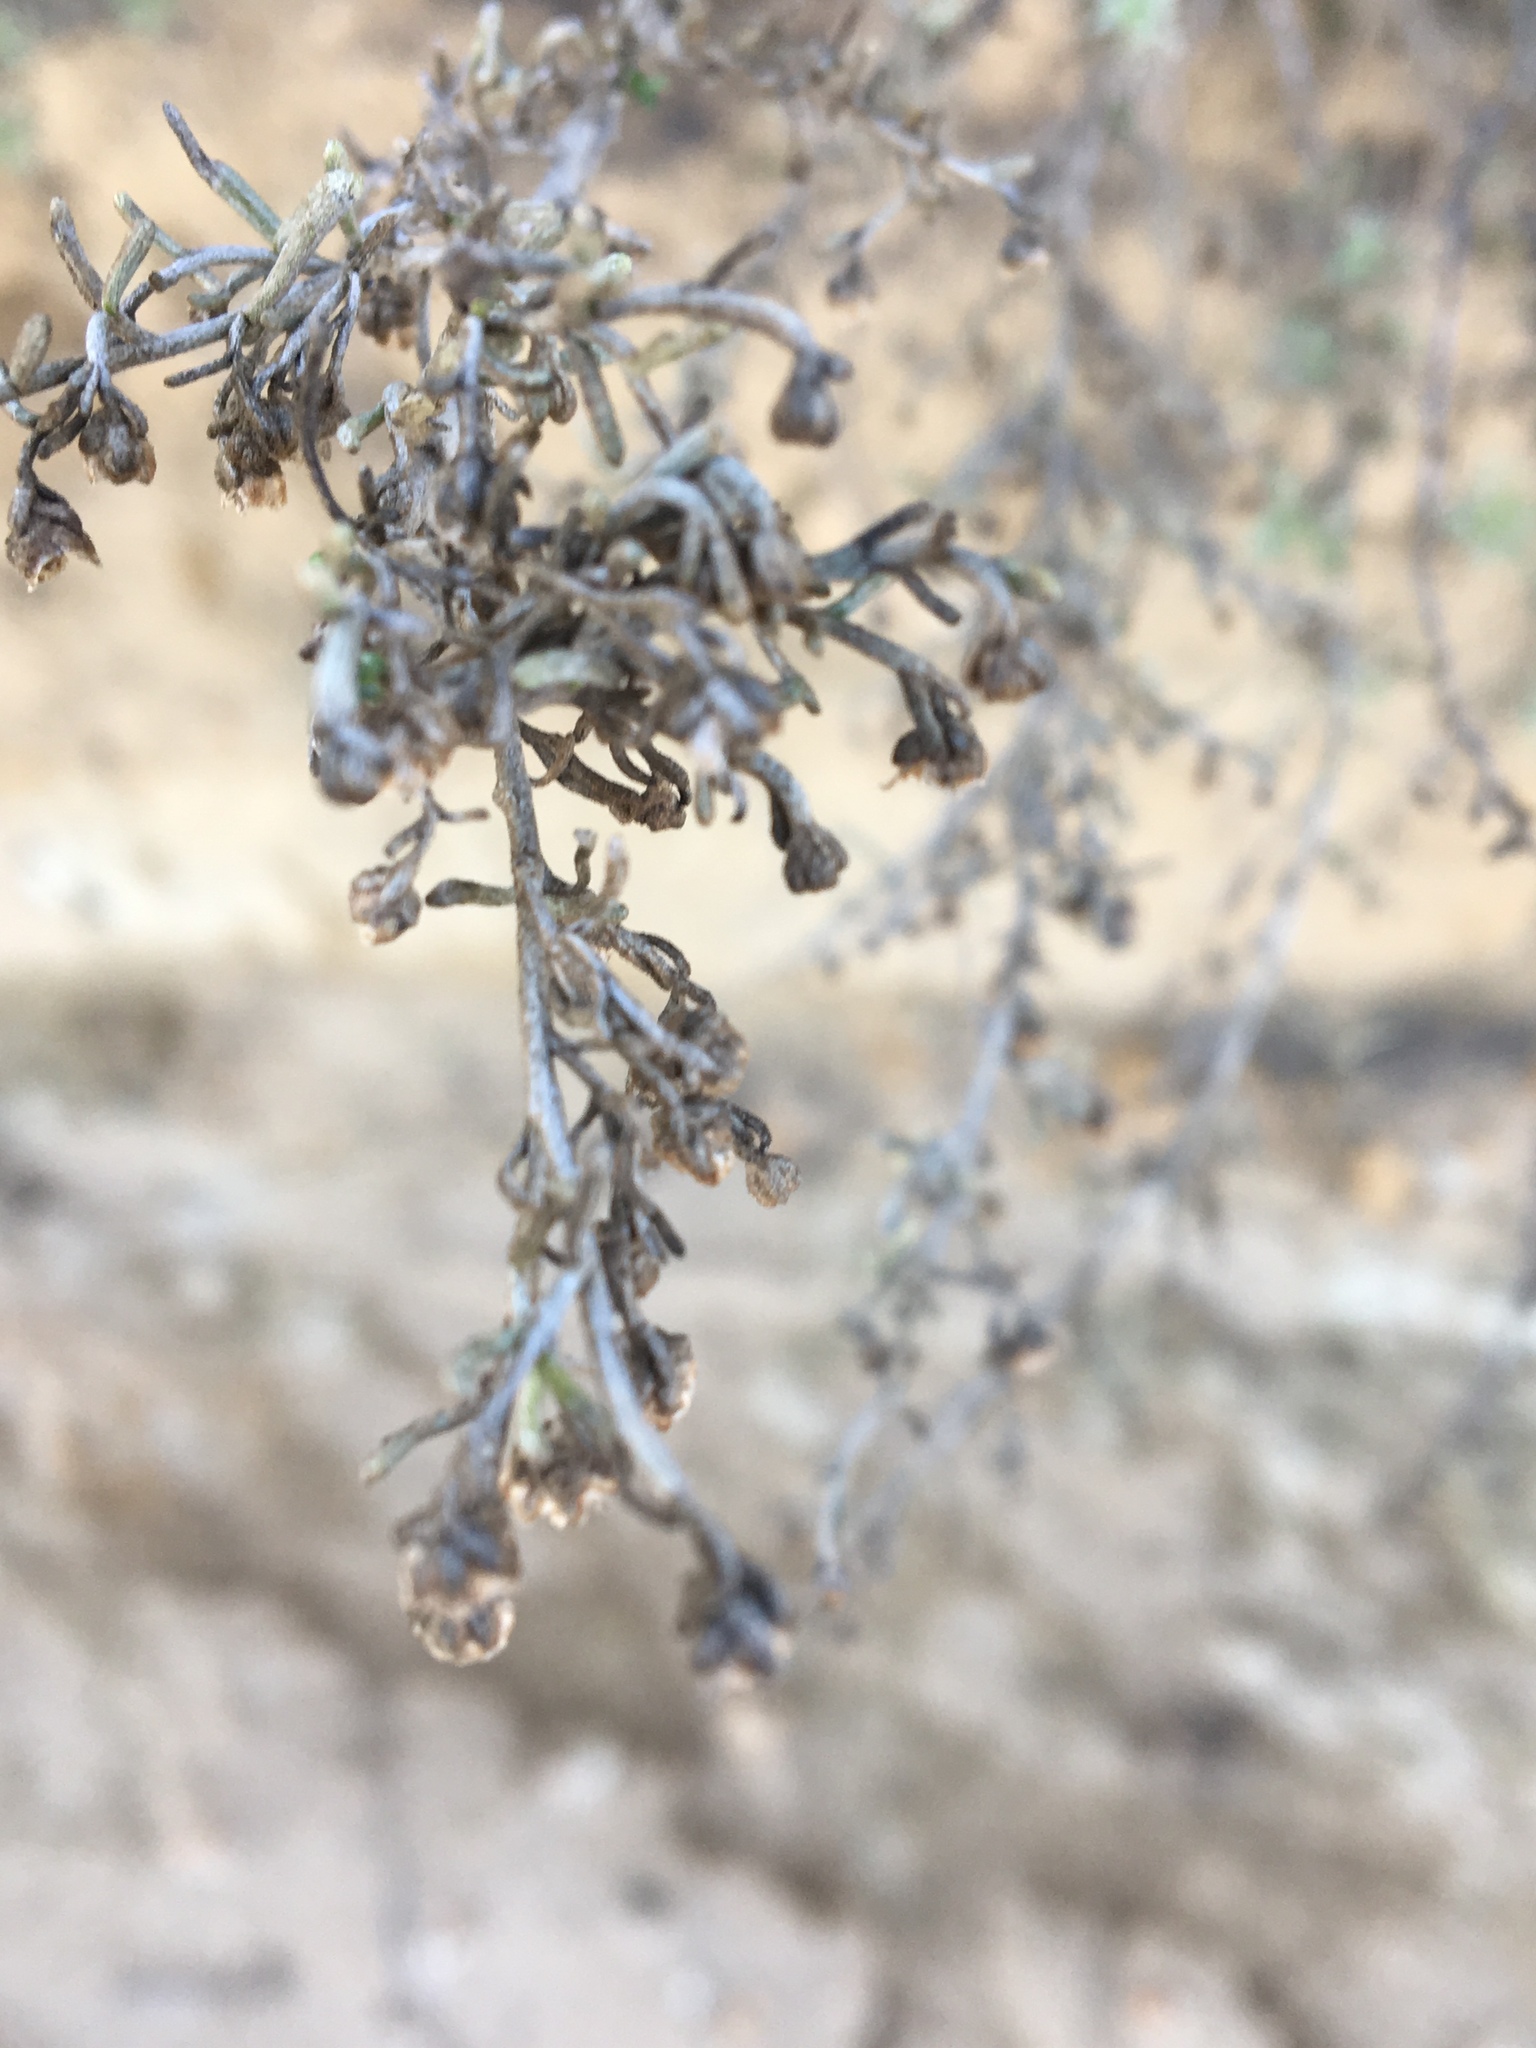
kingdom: Plantae
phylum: Tracheophyta
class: Magnoliopsida
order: Asterales
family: Asteraceae
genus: Artemisia
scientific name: Artemisia californica
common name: California sagebrush
